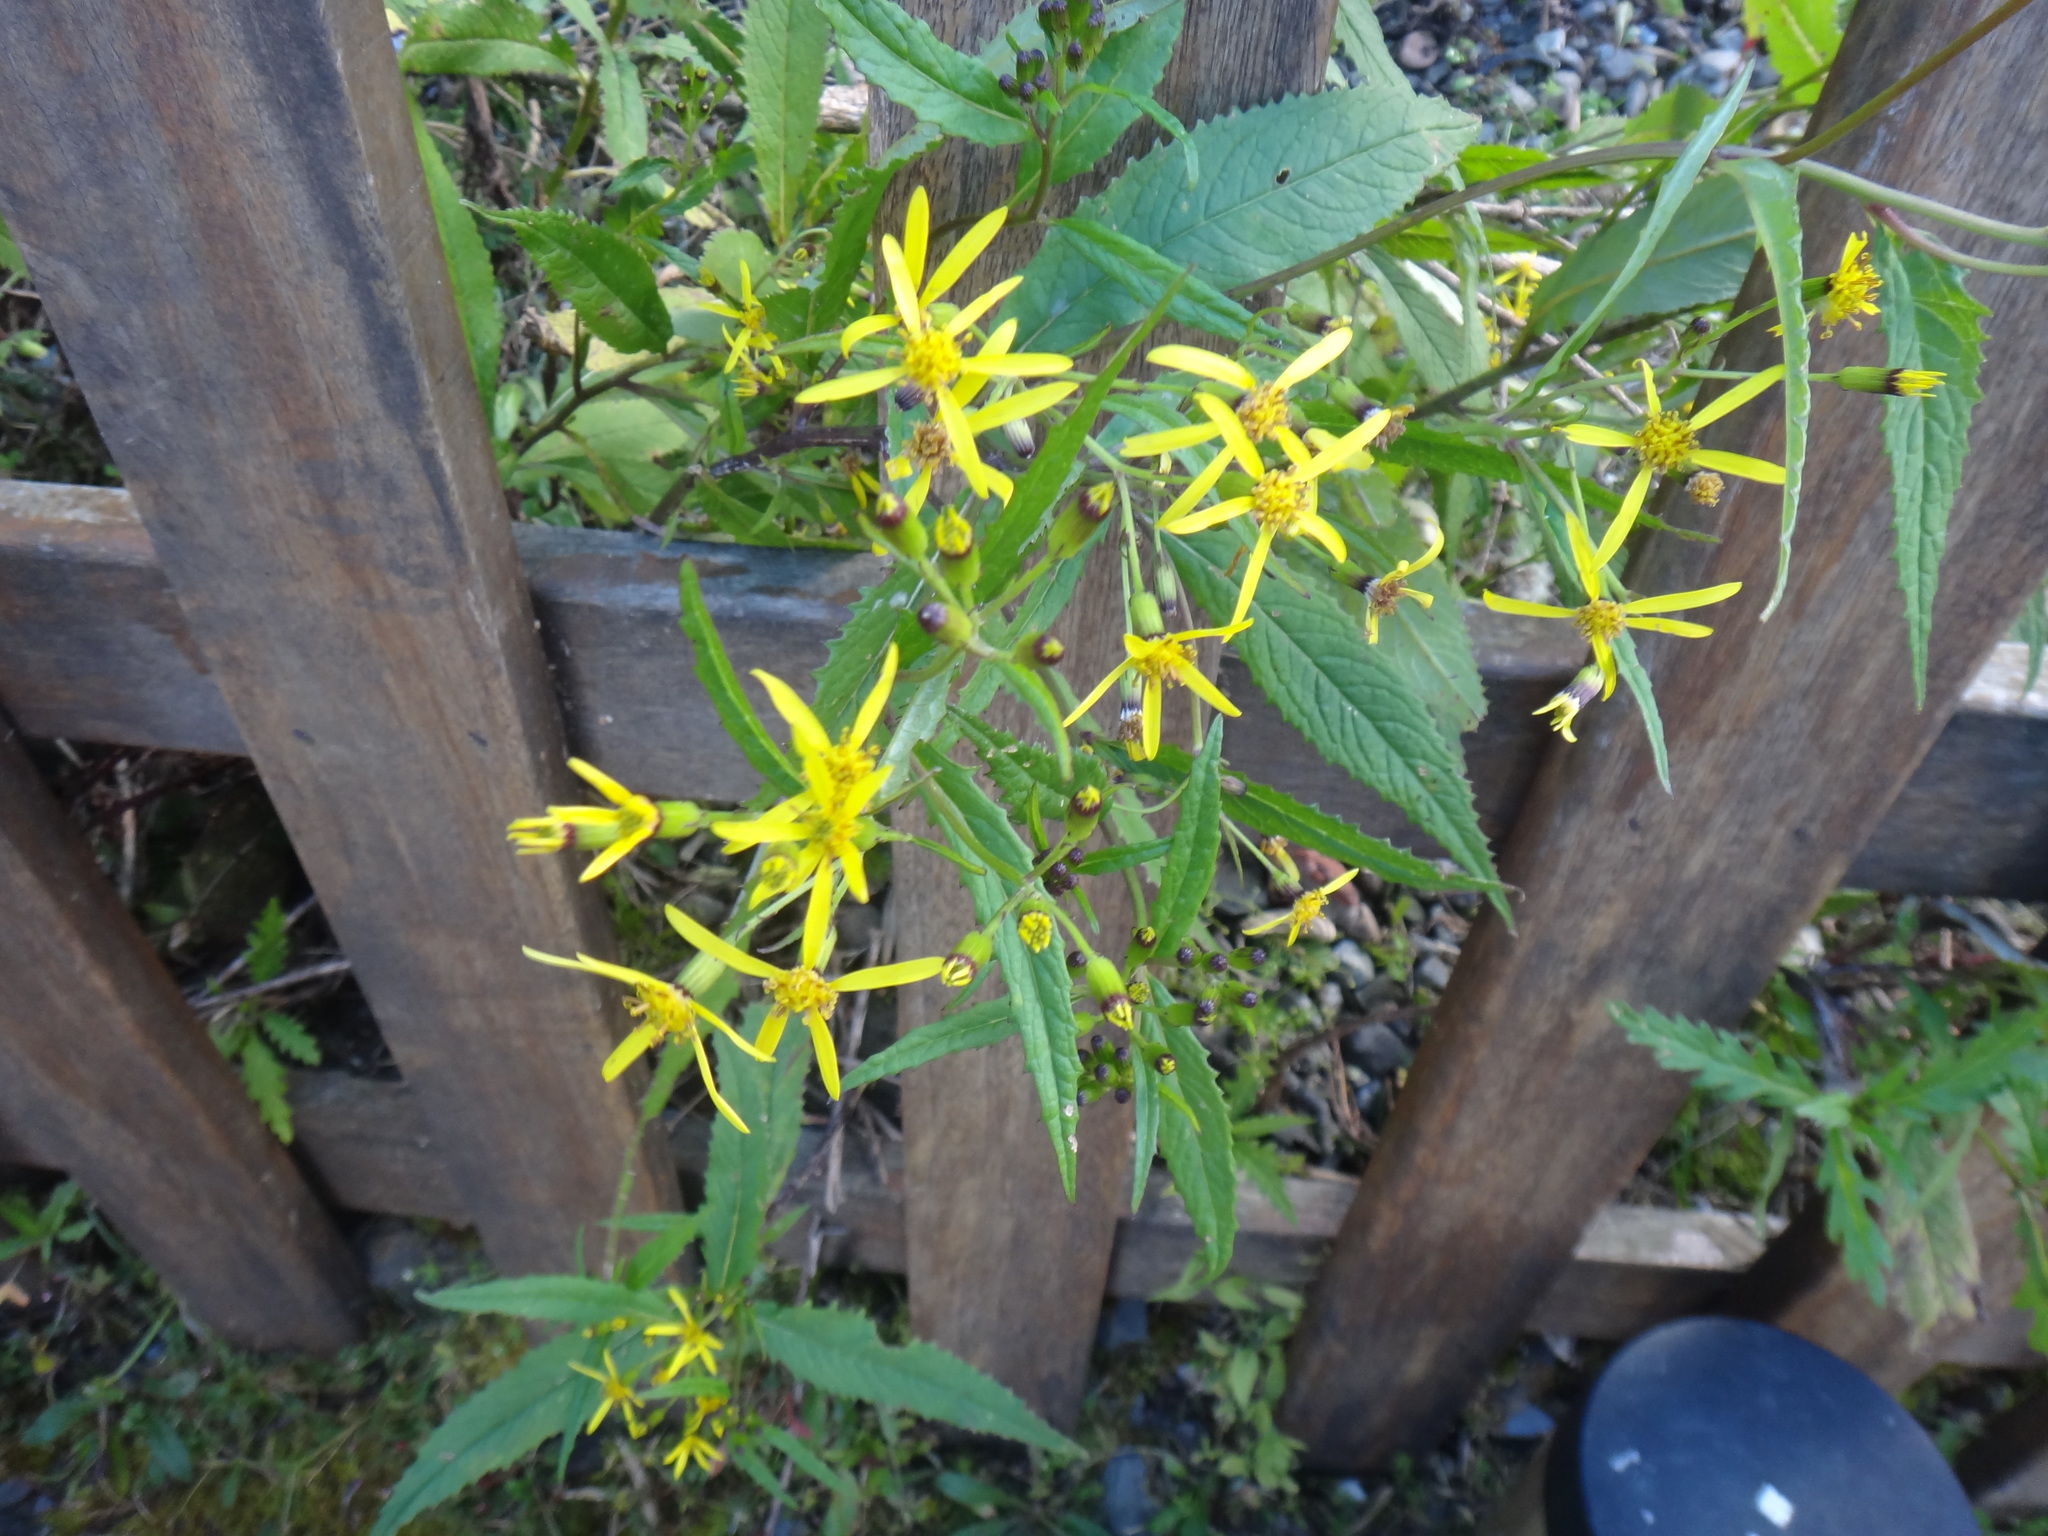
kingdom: Plantae
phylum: Tracheophyta
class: Magnoliopsida
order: Asterales
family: Asteraceae
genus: Jacobaea
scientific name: Jacobaea morrisonensis
